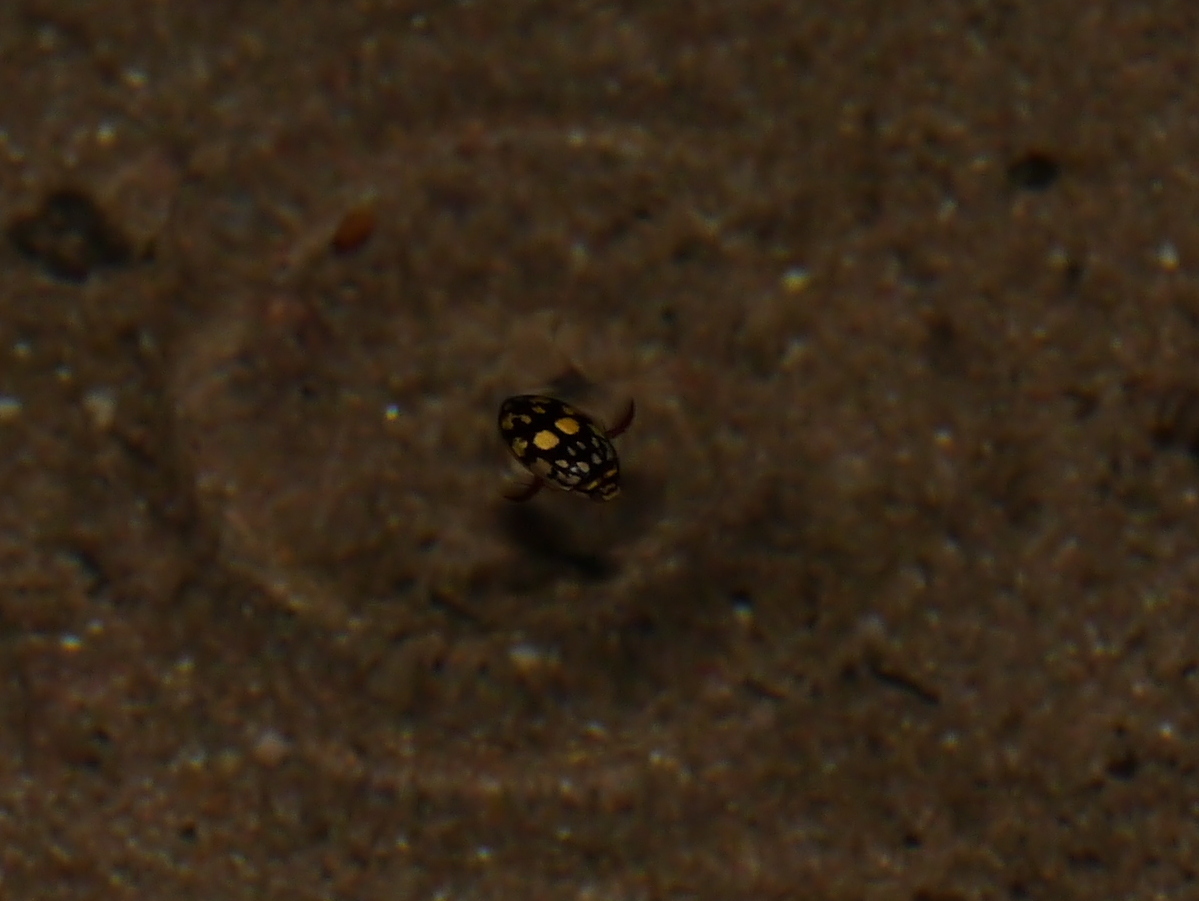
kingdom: Animalia
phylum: Arthropoda
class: Insecta
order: Coleoptera
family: Dytiscidae
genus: Thermonectus
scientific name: Thermonectus marmoratus
